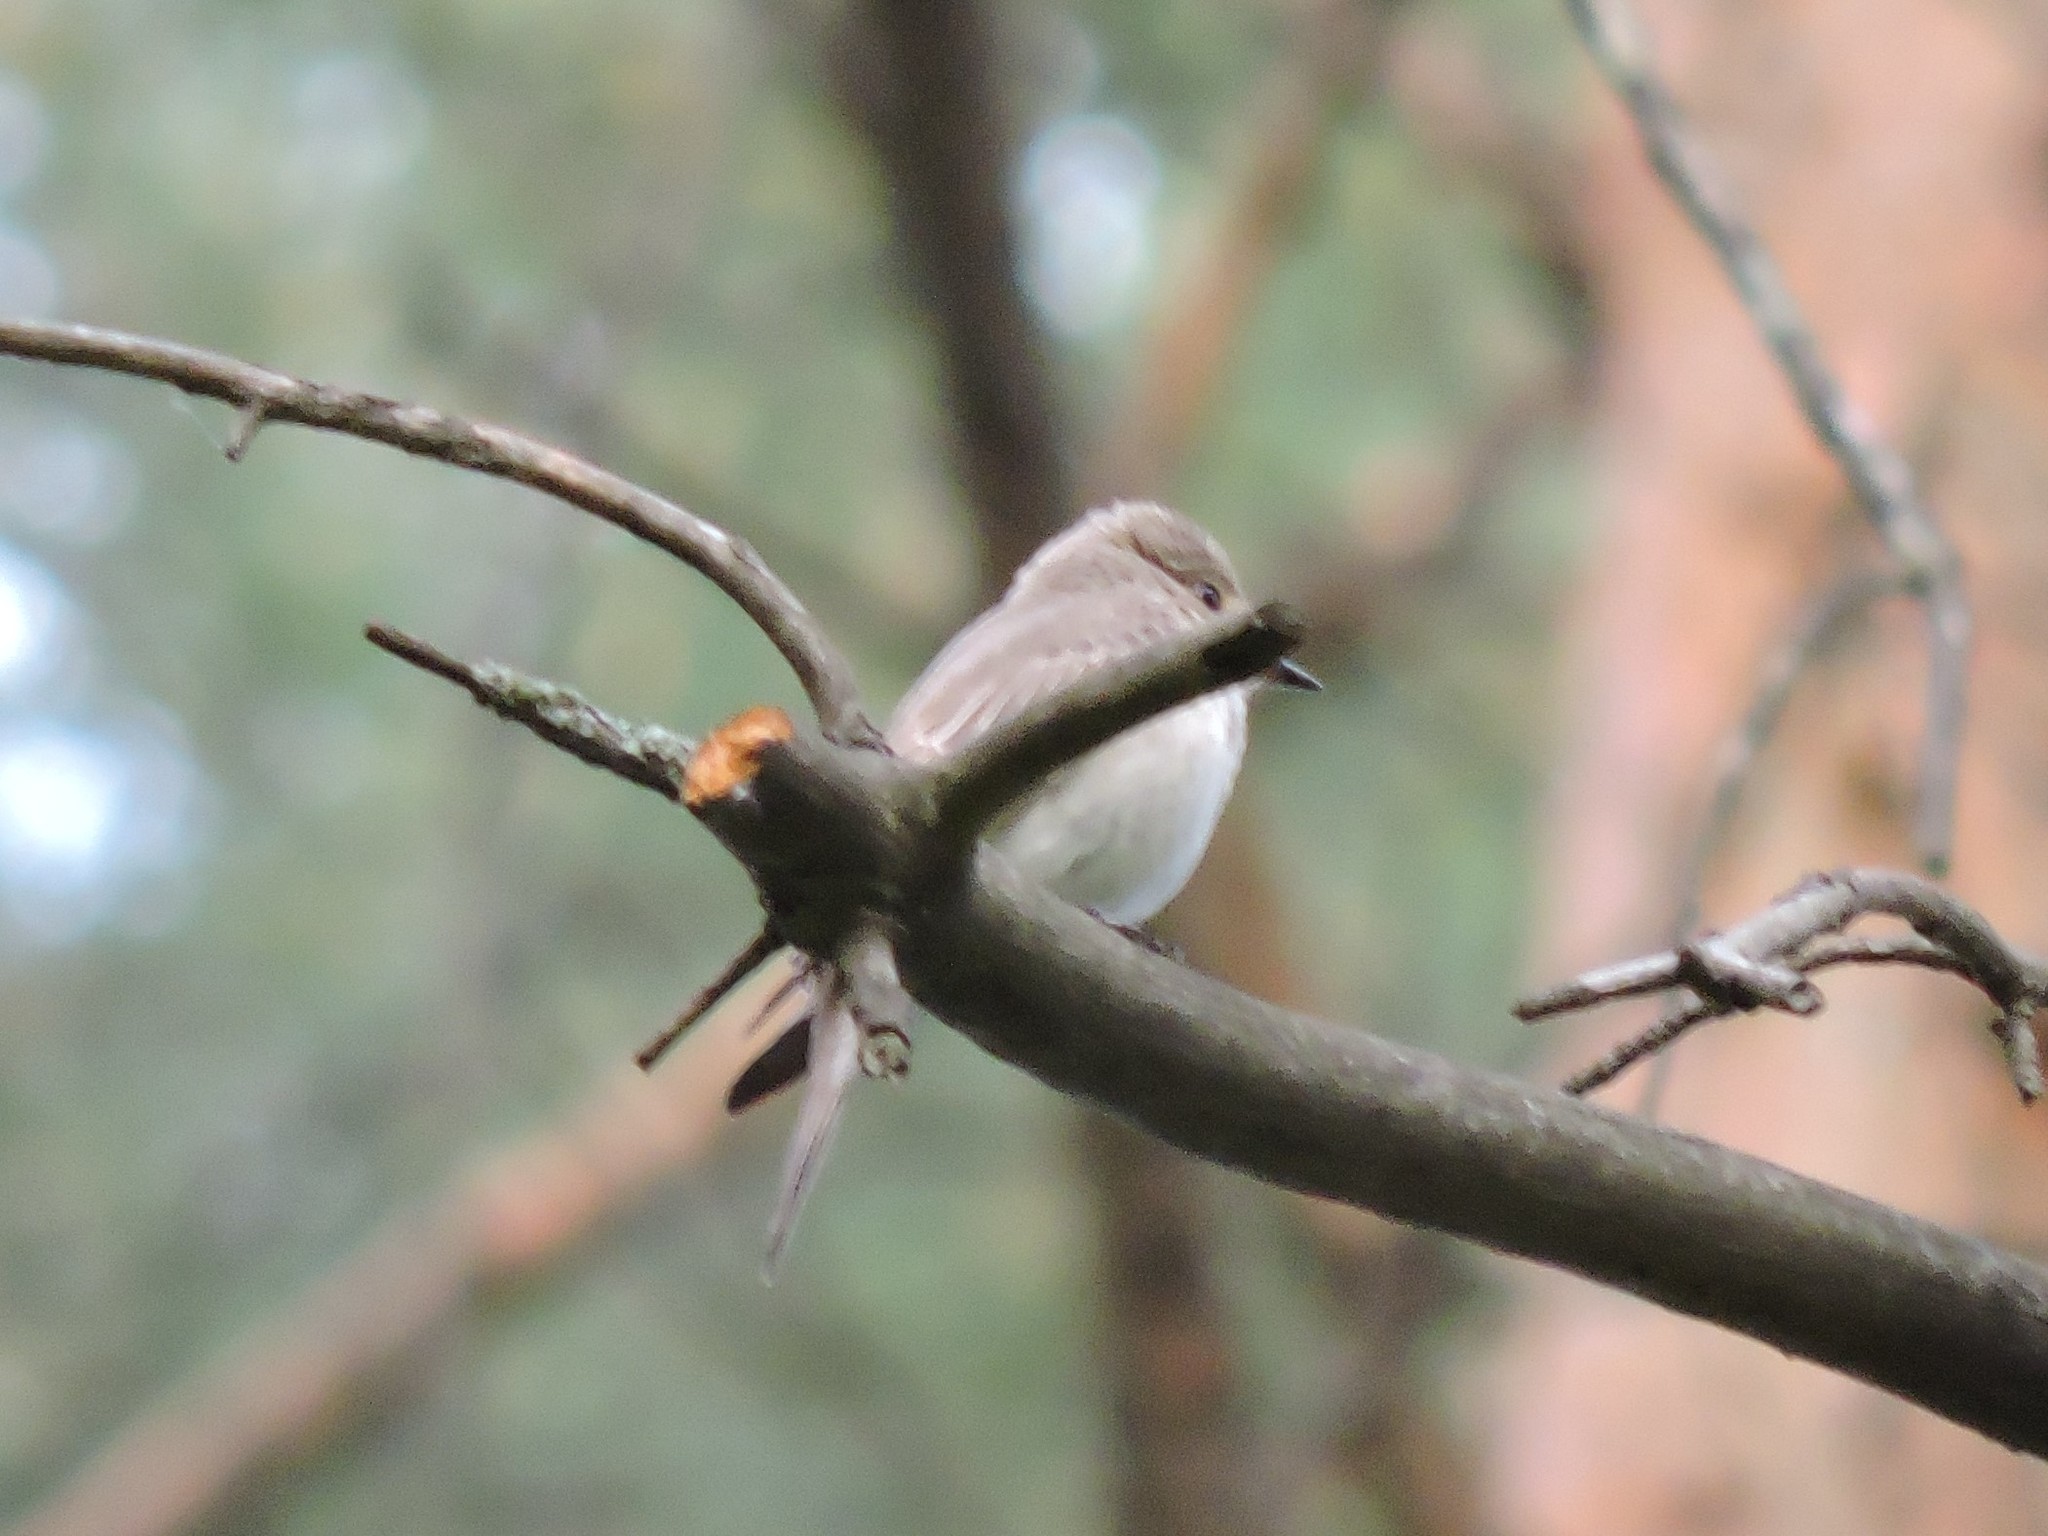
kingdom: Animalia
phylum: Chordata
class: Aves
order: Passeriformes
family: Muscicapidae
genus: Muscicapa
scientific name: Muscicapa striata
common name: Spotted flycatcher
